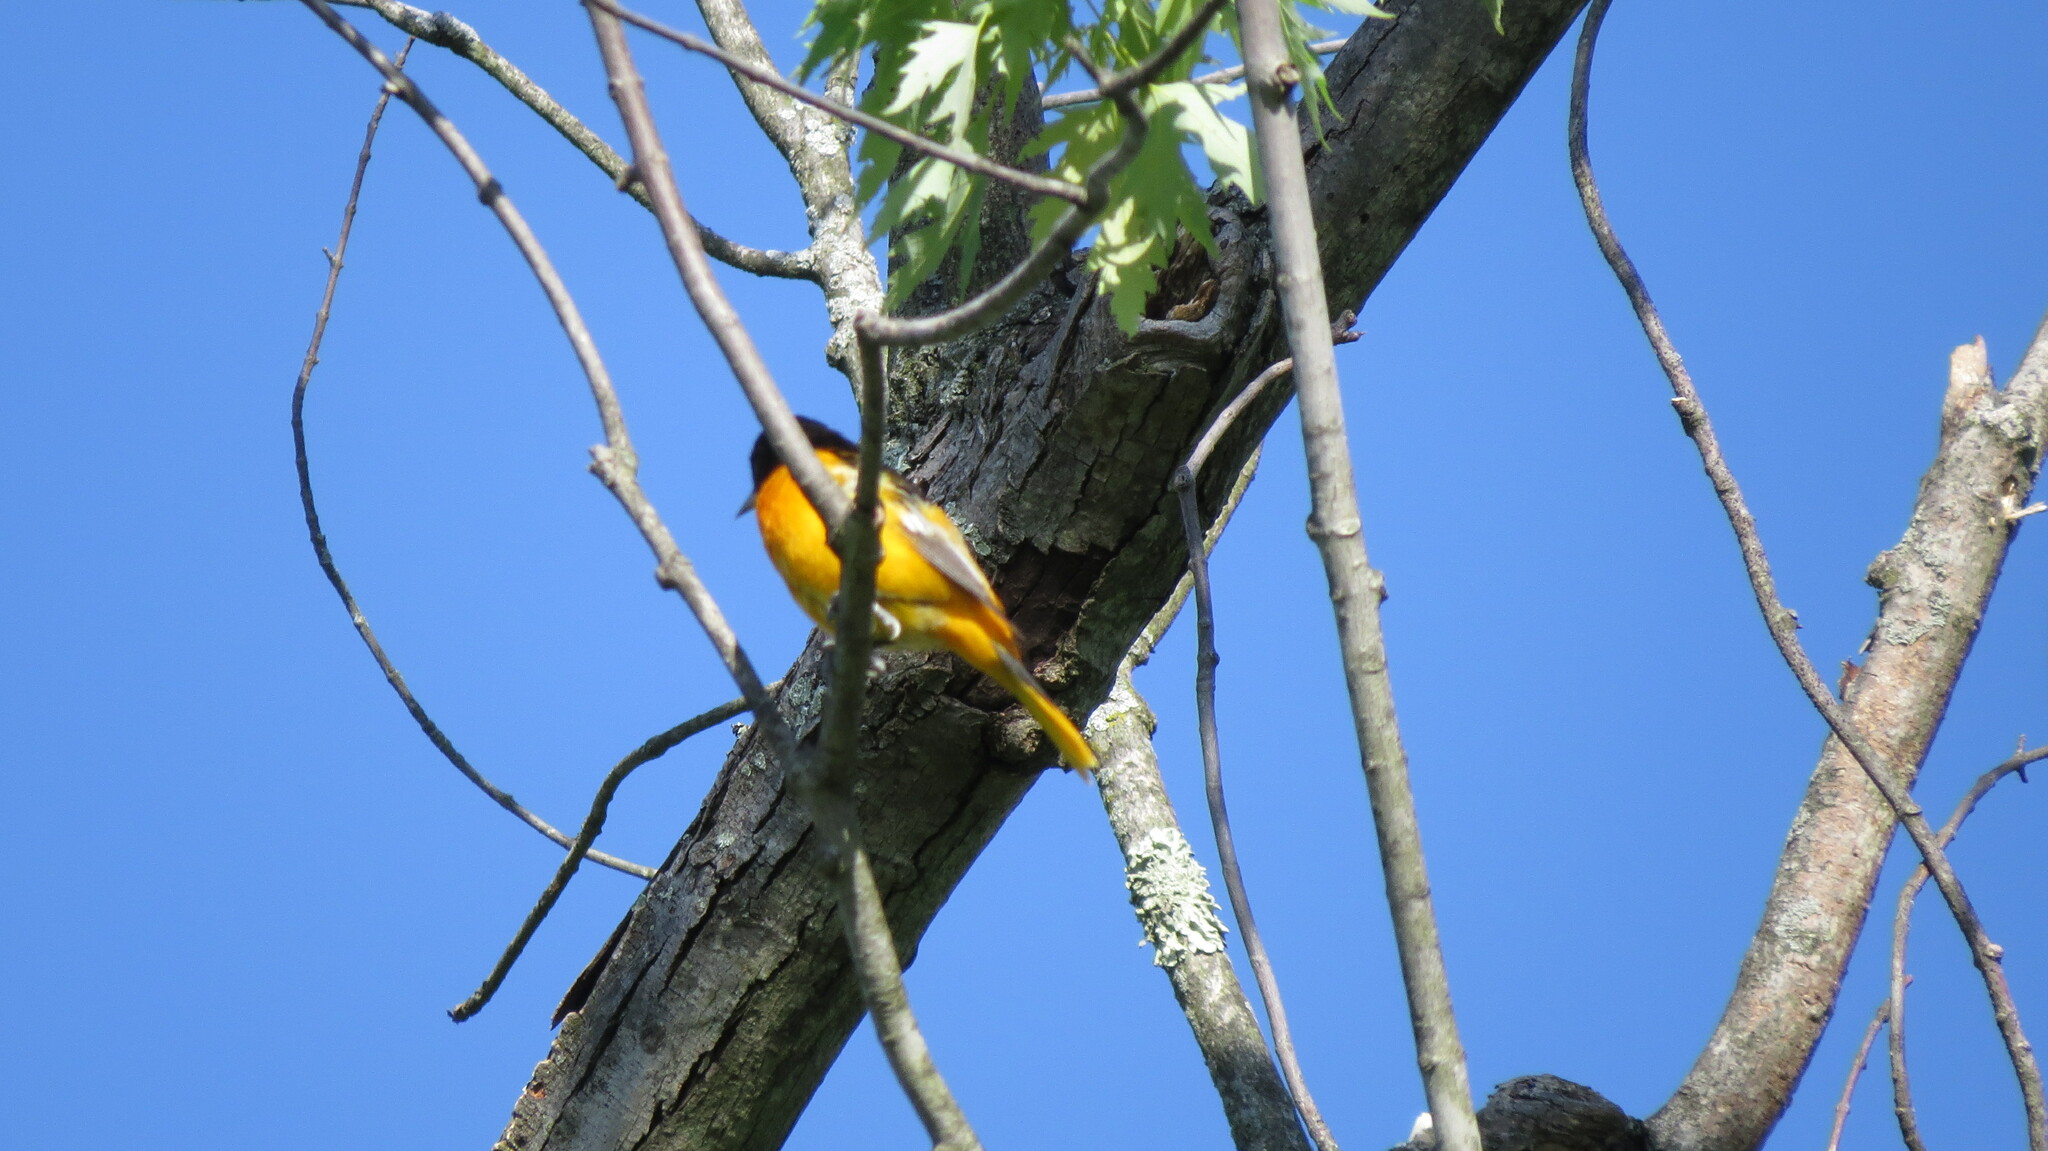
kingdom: Animalia
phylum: Chordata
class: Aves
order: Passeriformes
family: Icteridae
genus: Icterus
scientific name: Icterus galbula
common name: Baltimore oriole
